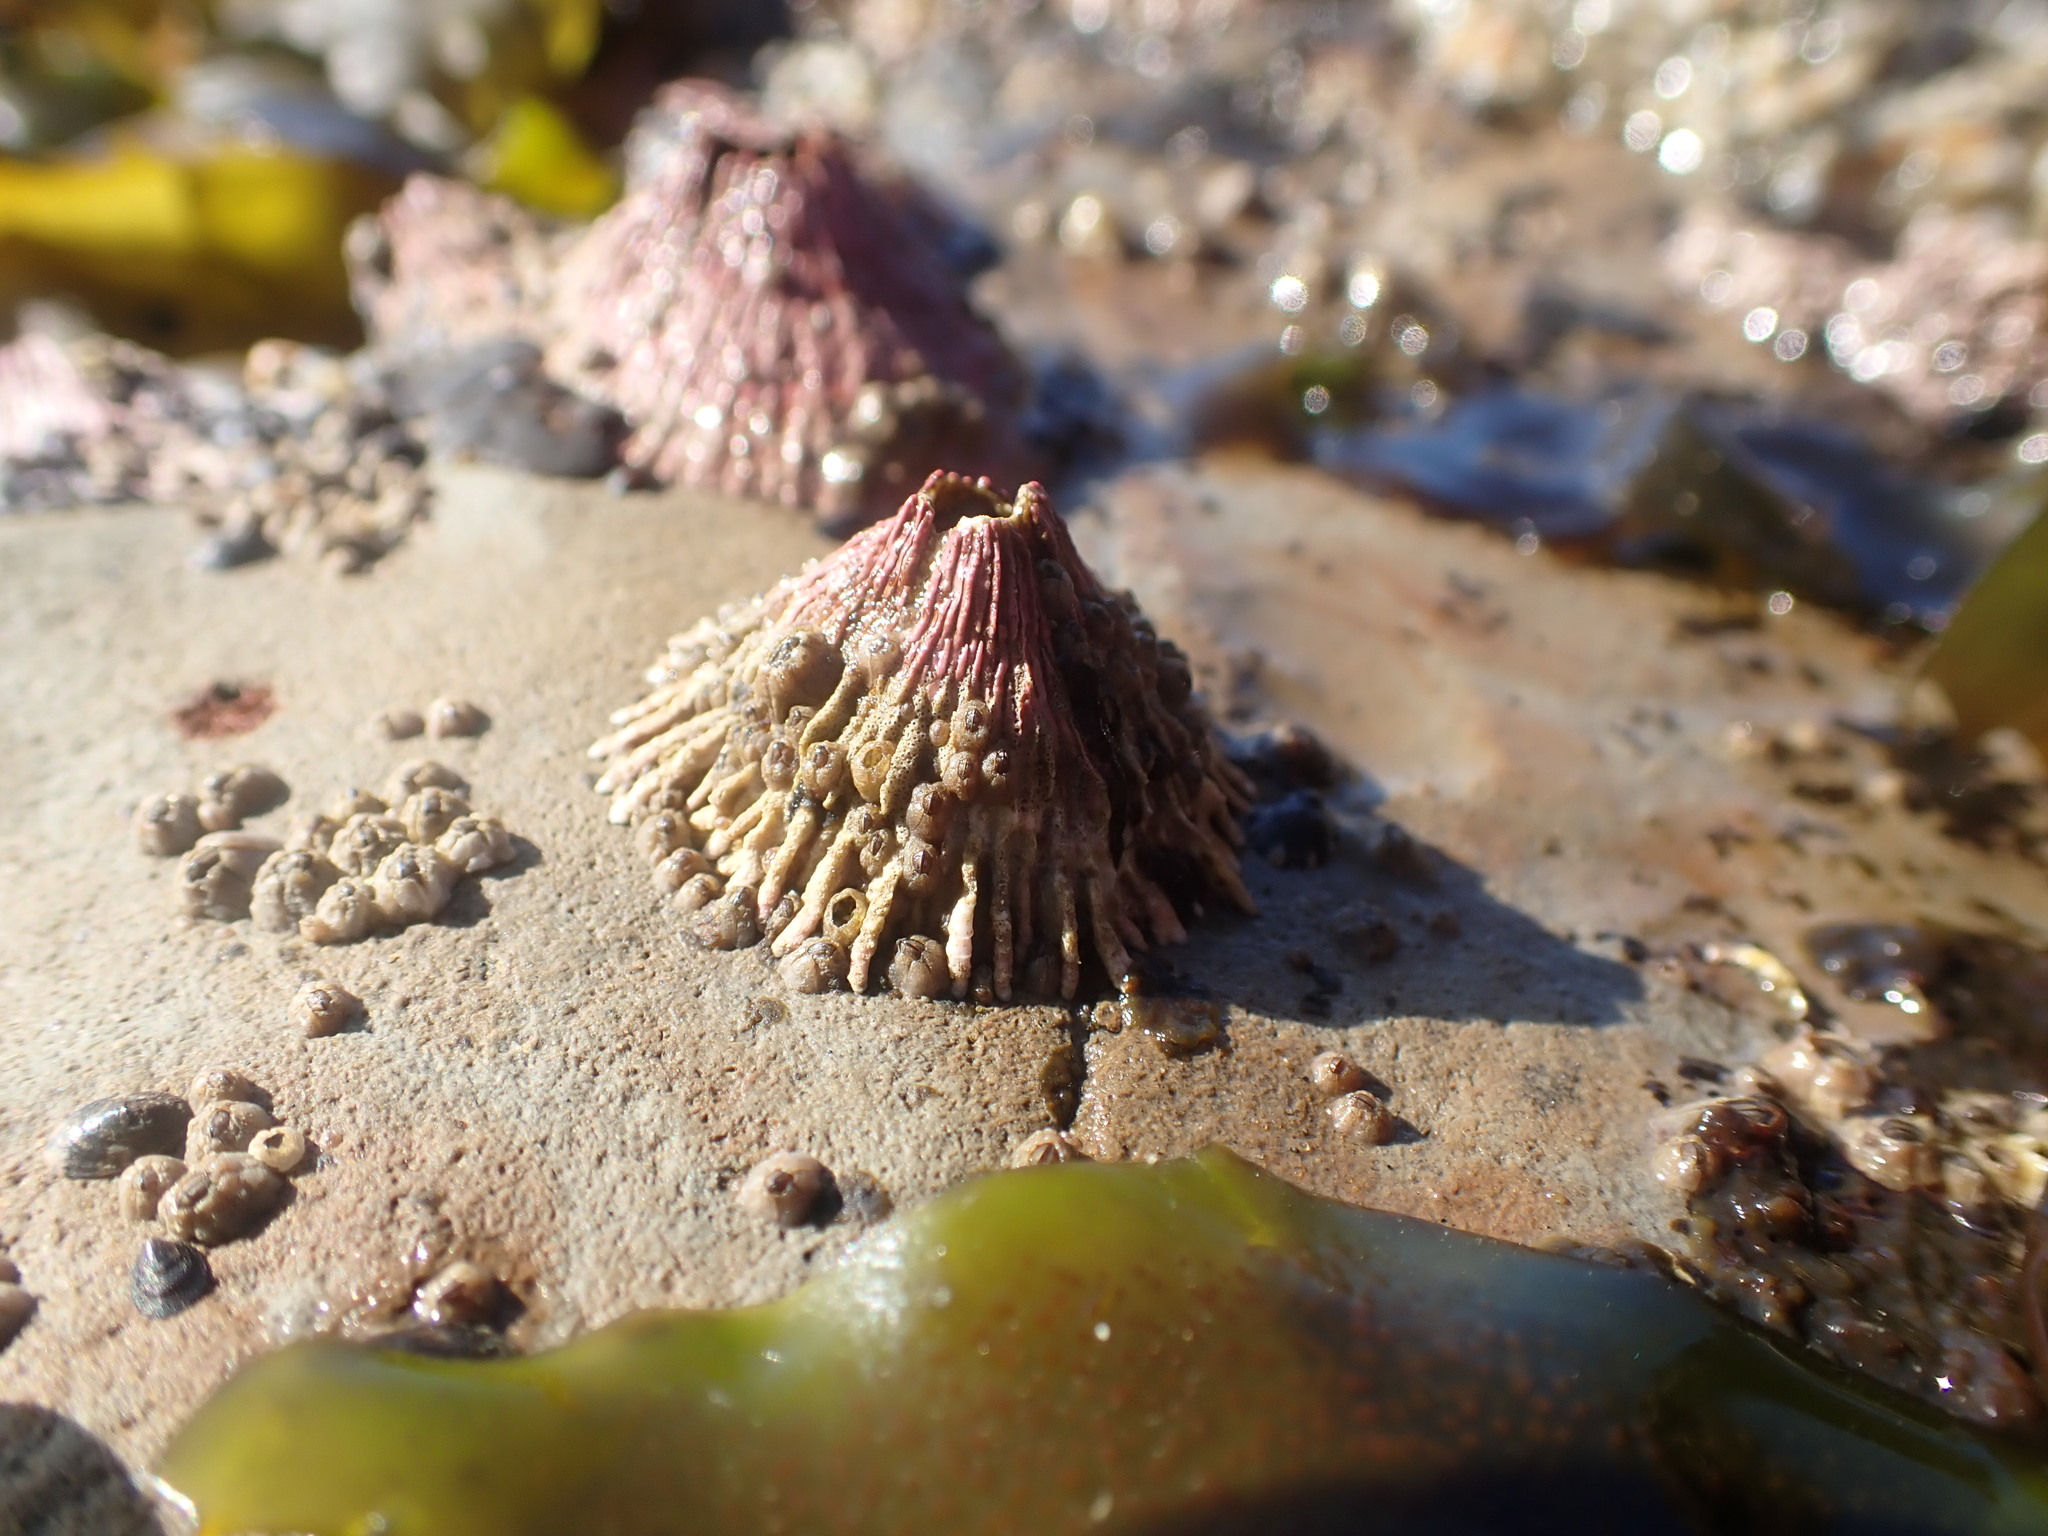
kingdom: Animalia
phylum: Arthropoda
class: Maxillopoda
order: Sessilia
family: Tetraclitidae
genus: Tetraclita
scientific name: Tetraclita rubescens
